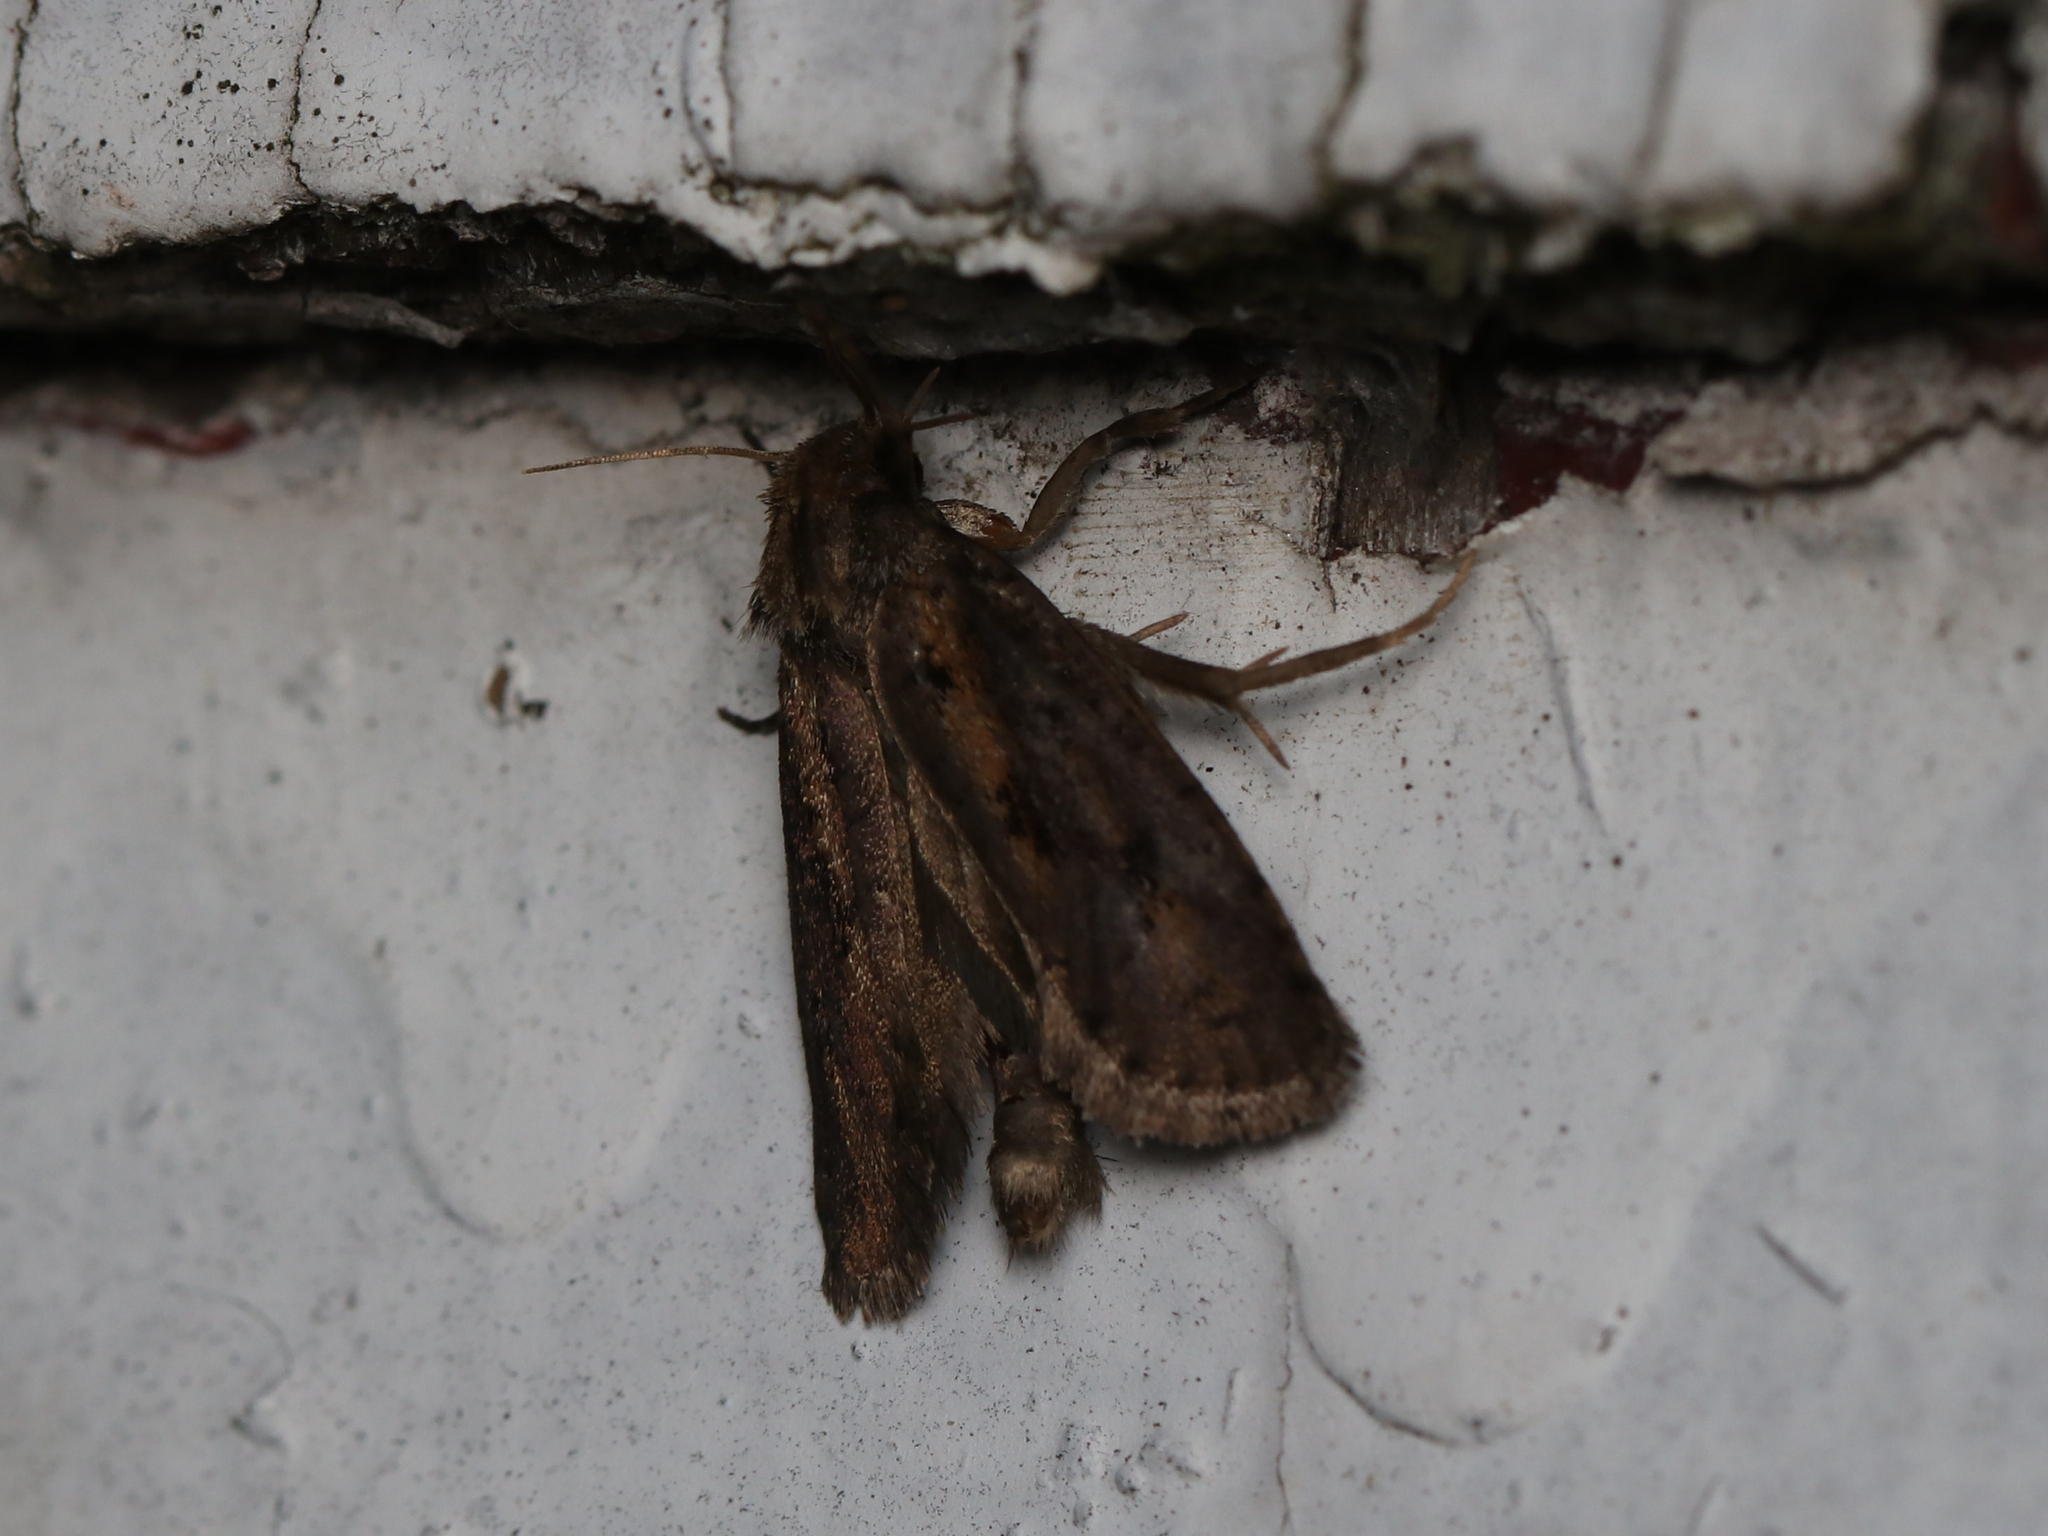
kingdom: Animalia
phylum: Arthropoda
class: Insecta
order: Lepidoptera
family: Tineidae
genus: Acrolophus
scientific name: Acrolophus popeanella
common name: Clemens' grass tubeworm moth
